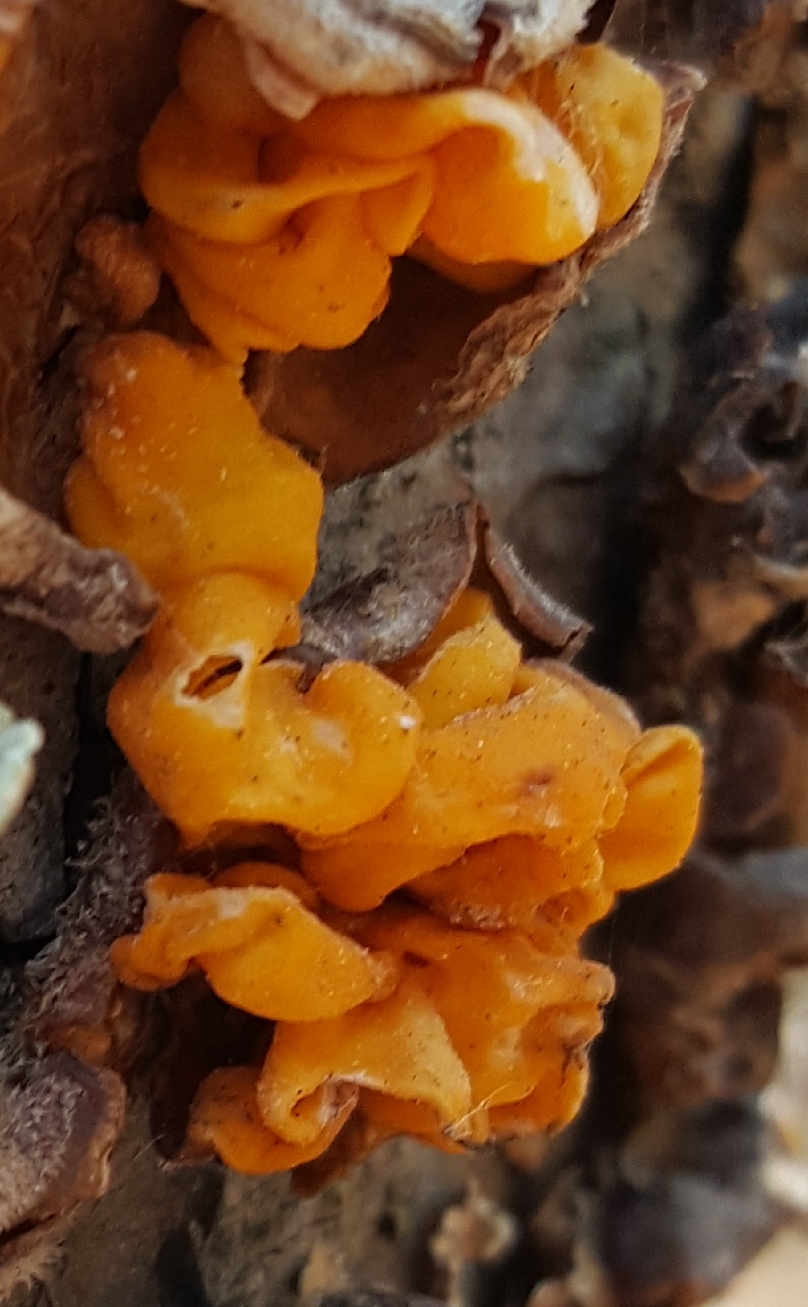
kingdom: Fungi
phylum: Basidiomycota
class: Tremellomycetes
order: Tremellales
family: Naemateliaceae
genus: Naematelia
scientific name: Naematelia aurantia
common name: Golden ear
